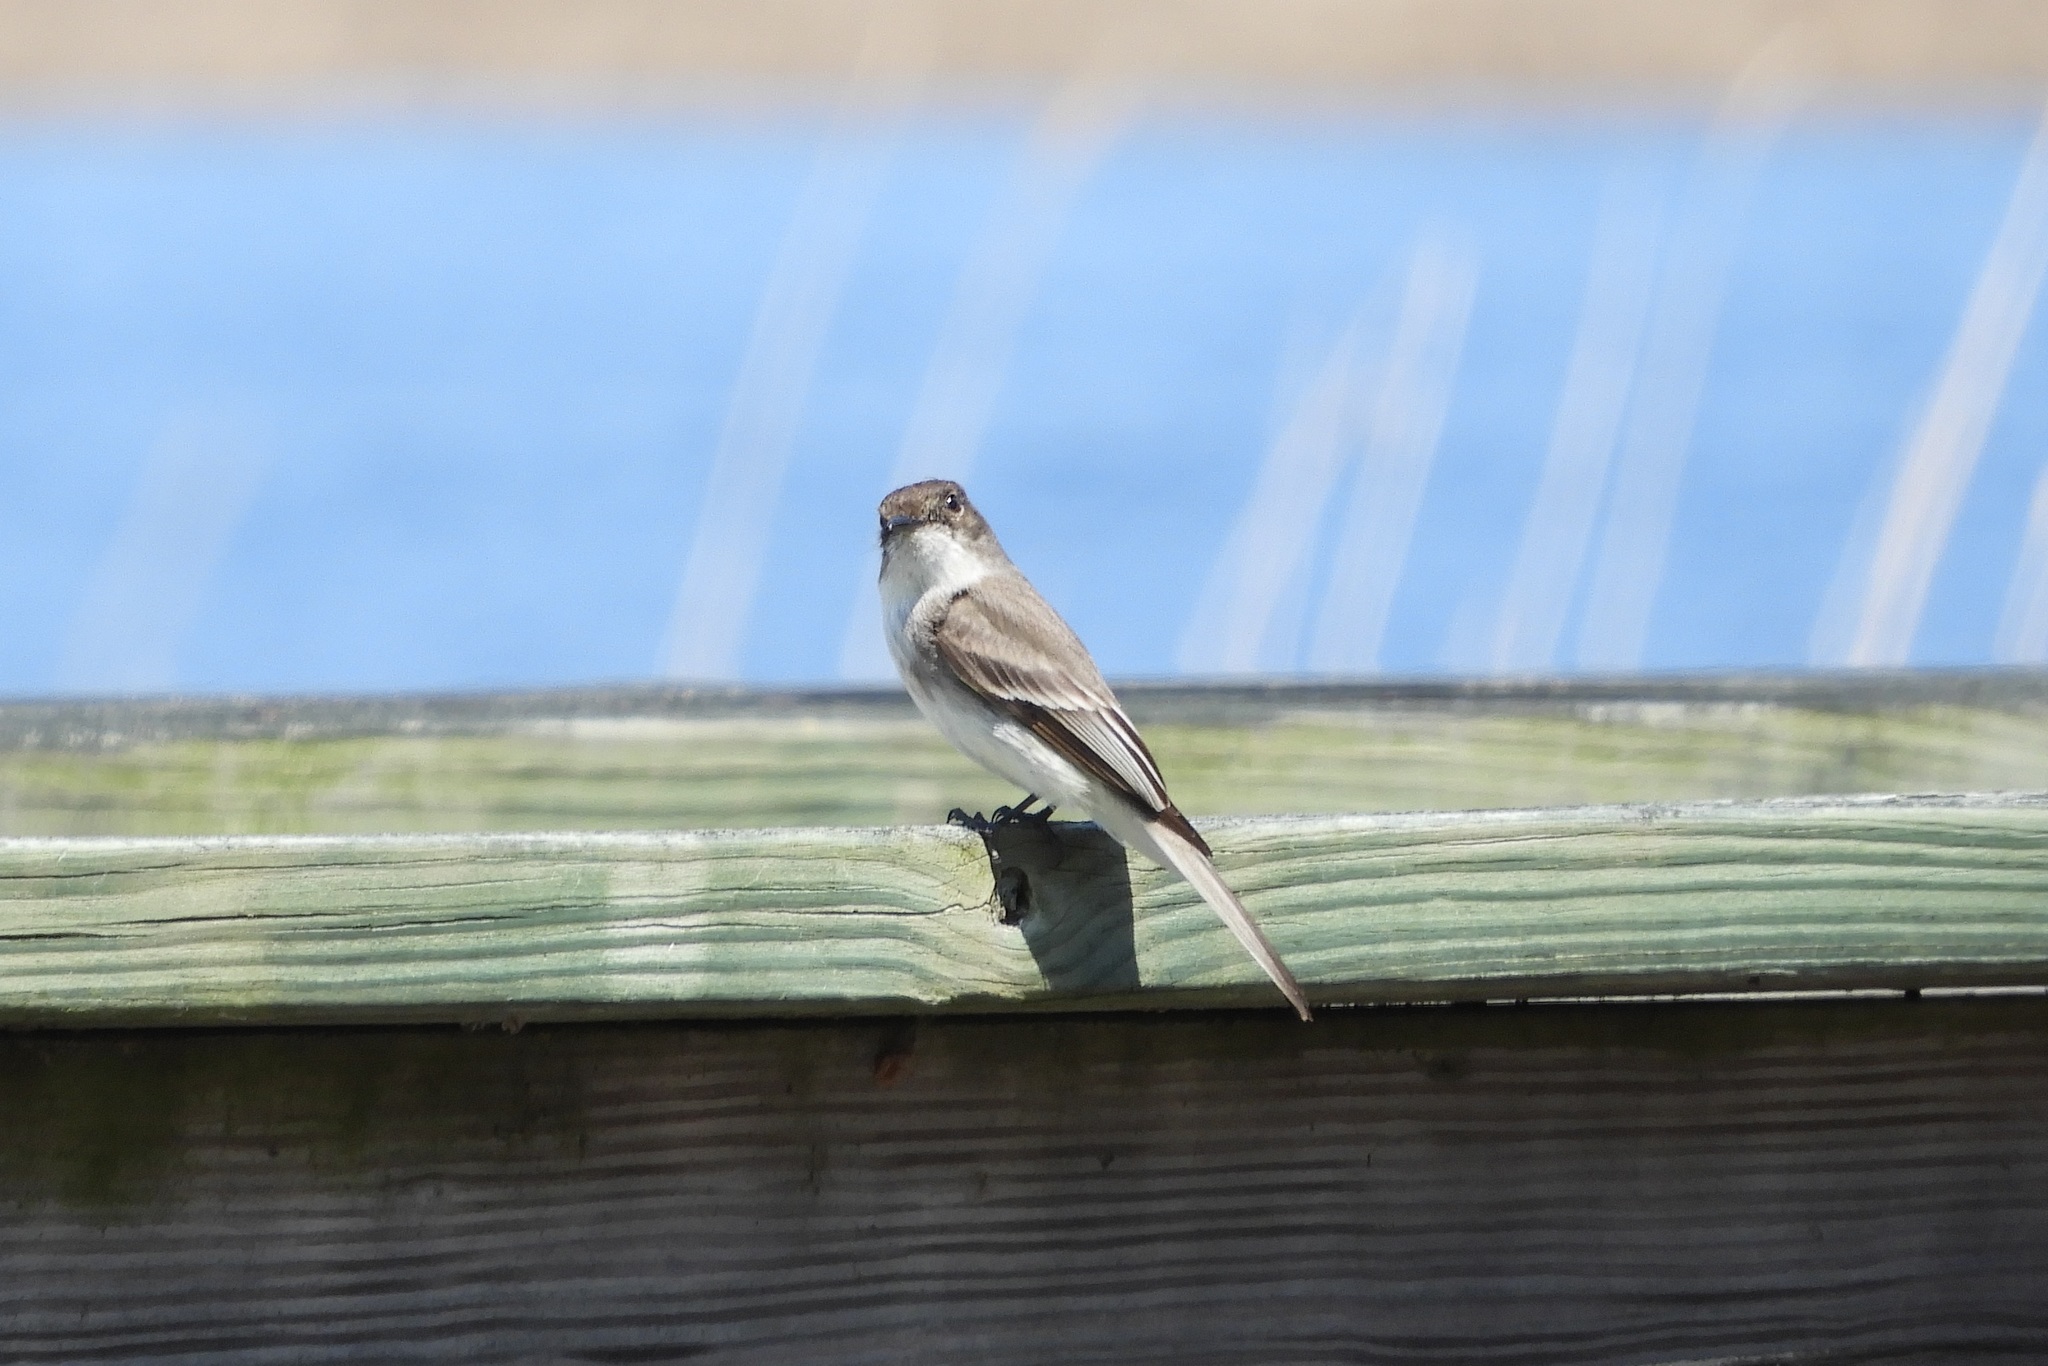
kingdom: Animalia
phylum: Chordata
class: Aves
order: Passeriformes
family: Tyrannidae
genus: Sayornis
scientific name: Sayornis phoebe
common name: Eastern phoebe
